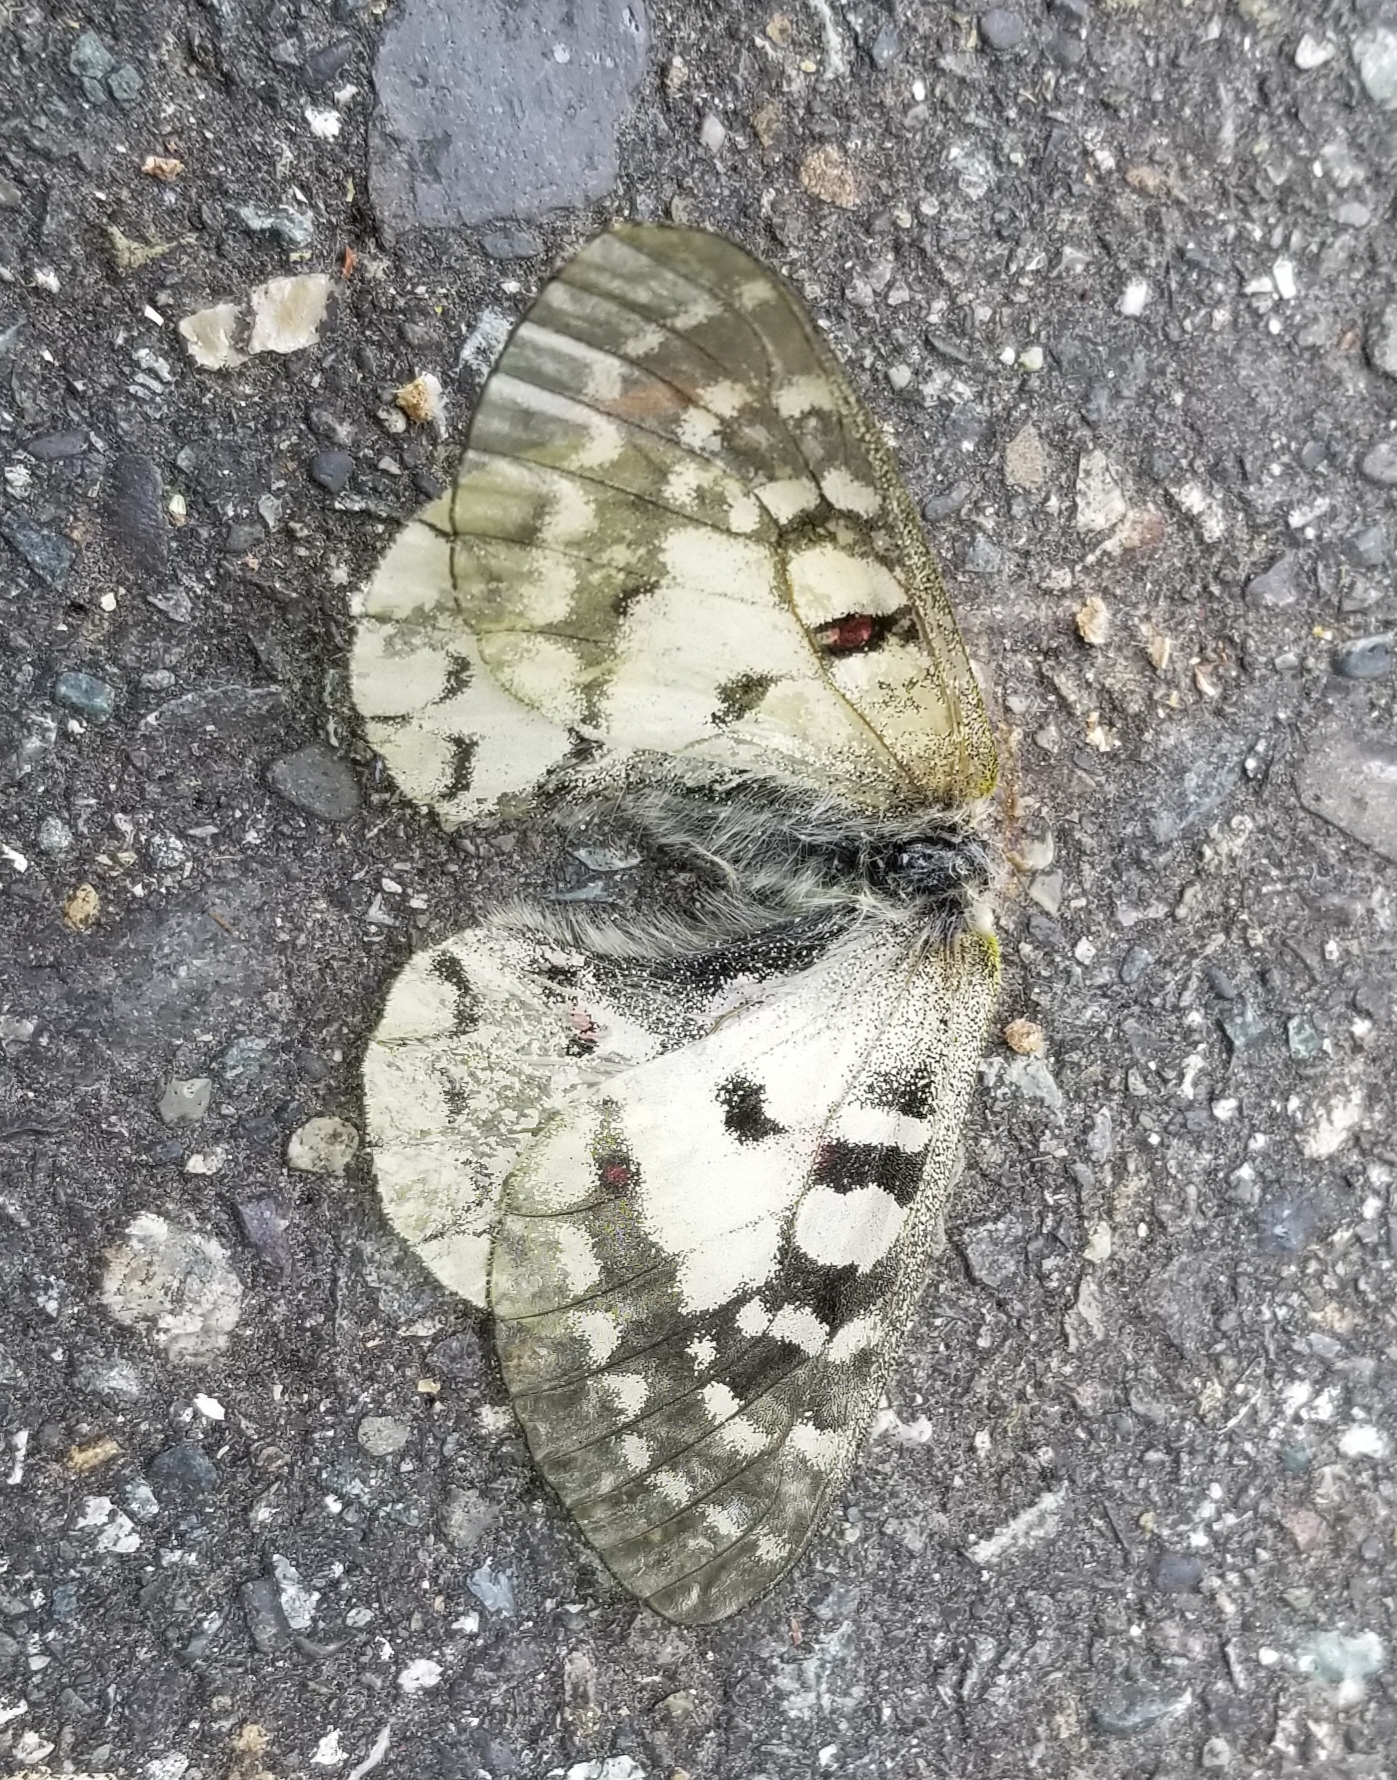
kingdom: Animalia
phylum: Arthropoda
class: Insecta
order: Lepidoptera
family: Papilionidae
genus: Parnassius
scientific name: Parnassius clodius
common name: American apollo
